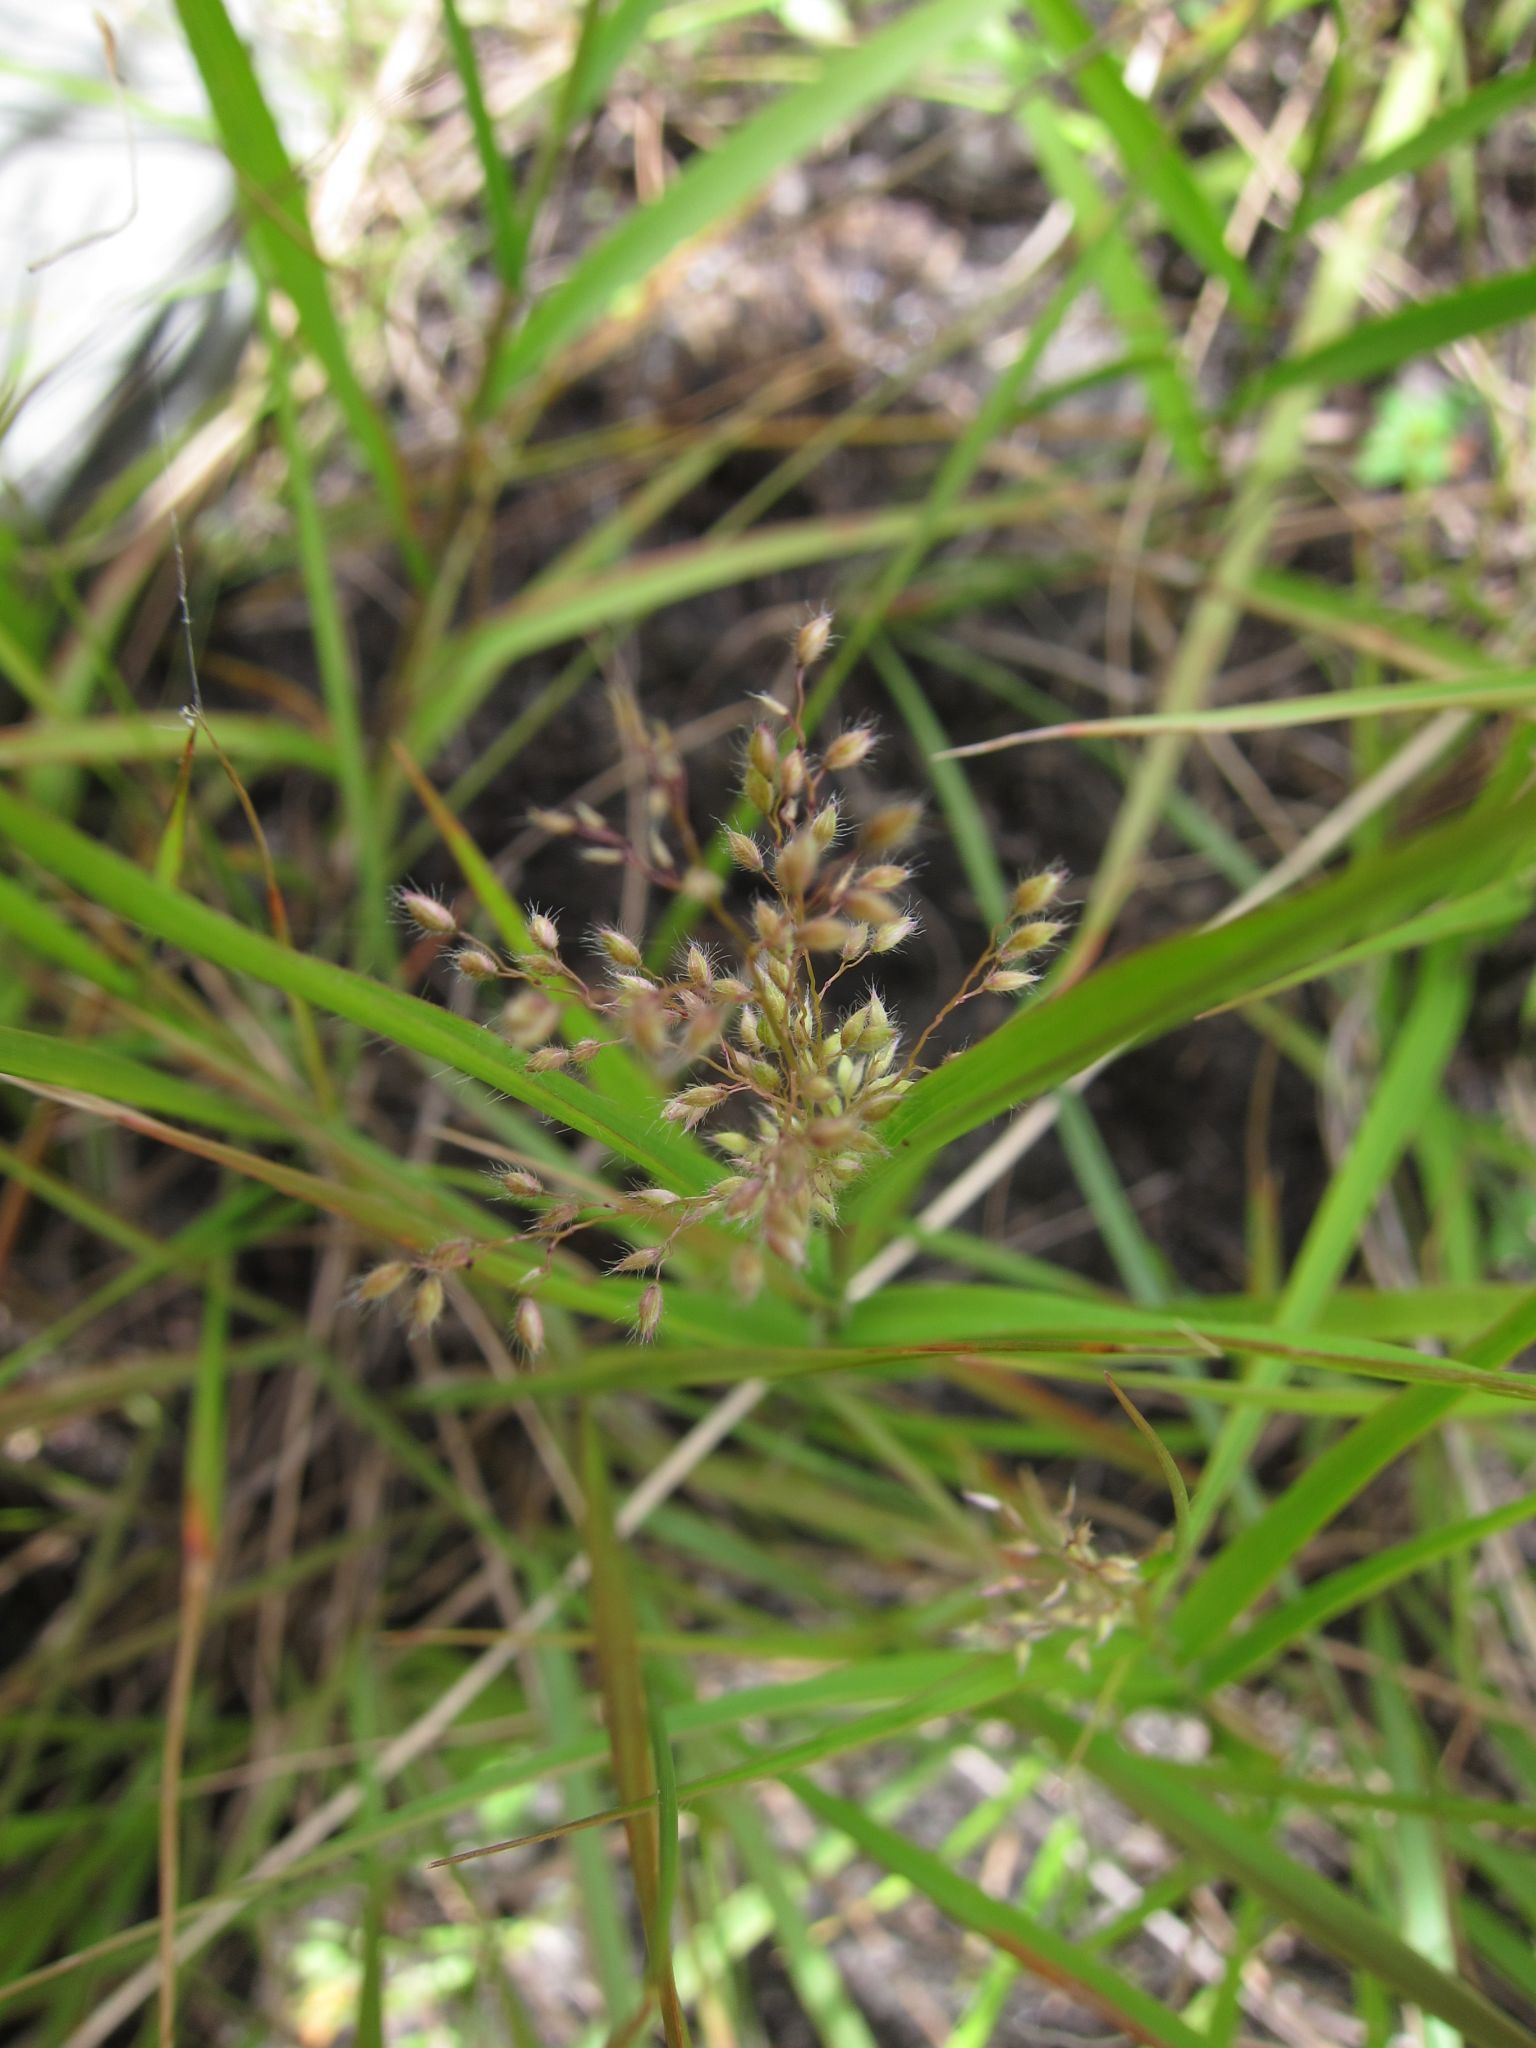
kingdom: Plantae
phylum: Tracheophyta
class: Liliopsida
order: Poales
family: Poaceae
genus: Panicum
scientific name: Panicum subhystrix
